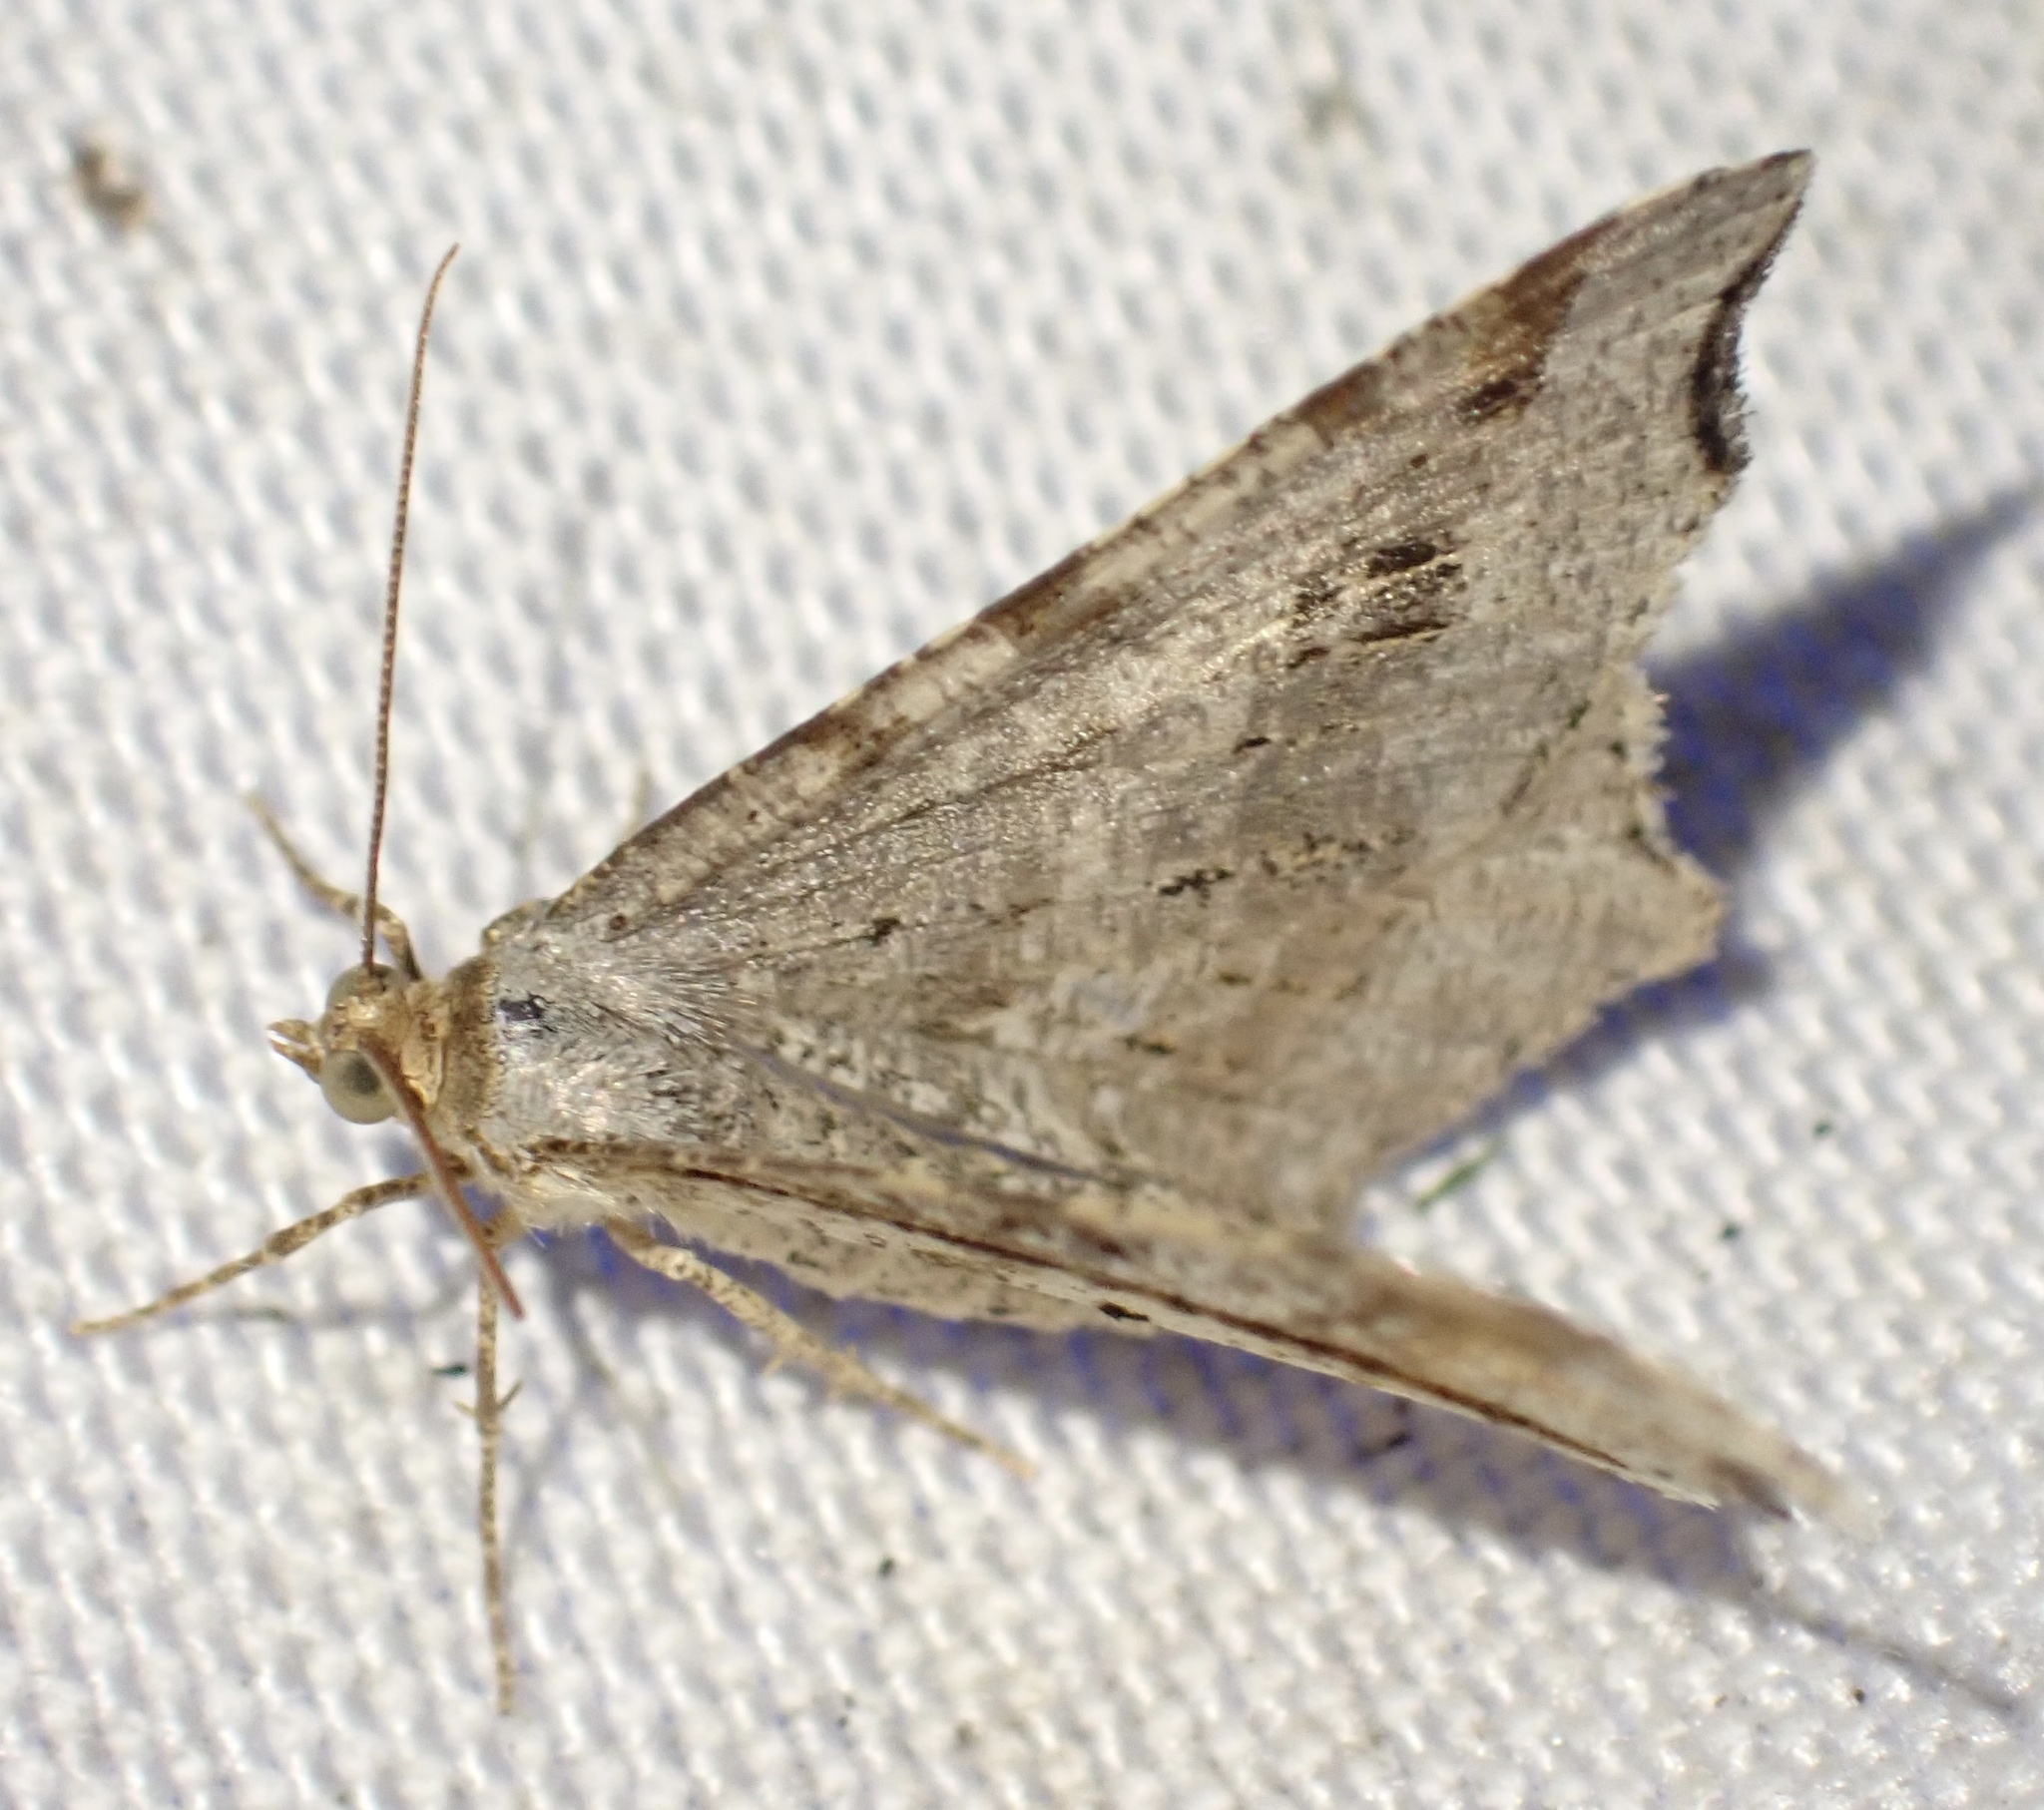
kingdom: Animalia
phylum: Arthropoda
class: Insecta
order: Lepidoptera
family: Geometridae
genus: Macaria
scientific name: Macaria alternata
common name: Sharp-angled peacock
